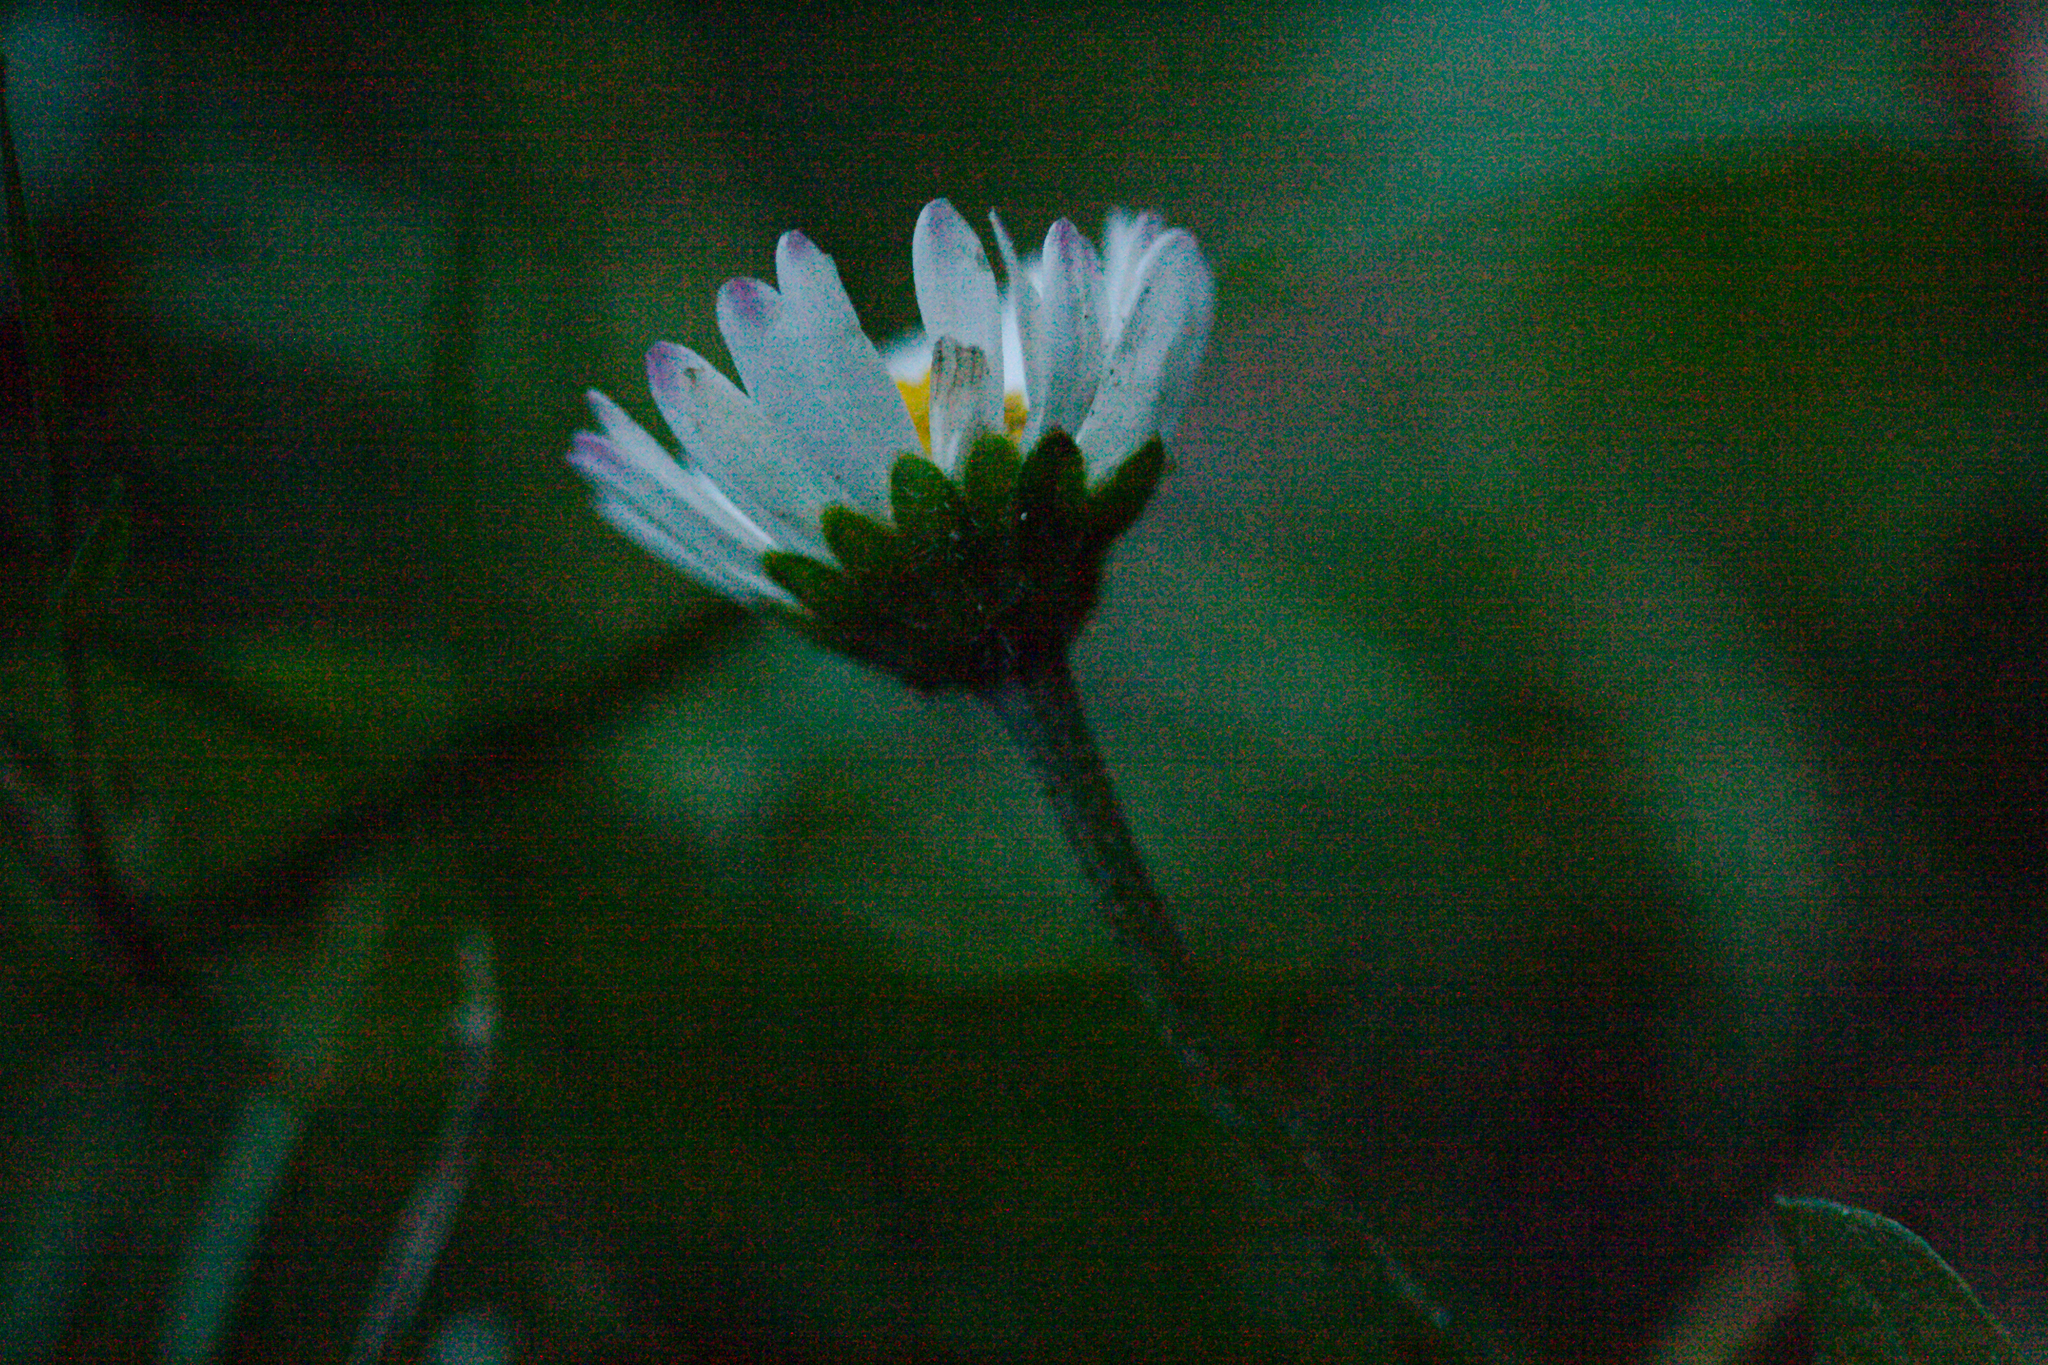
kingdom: Plantae
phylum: Tracheophyta
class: Magnoliopsida
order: Asterales
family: Asteraceae
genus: Bellis
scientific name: Bellis perennis
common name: Lawndaisy
